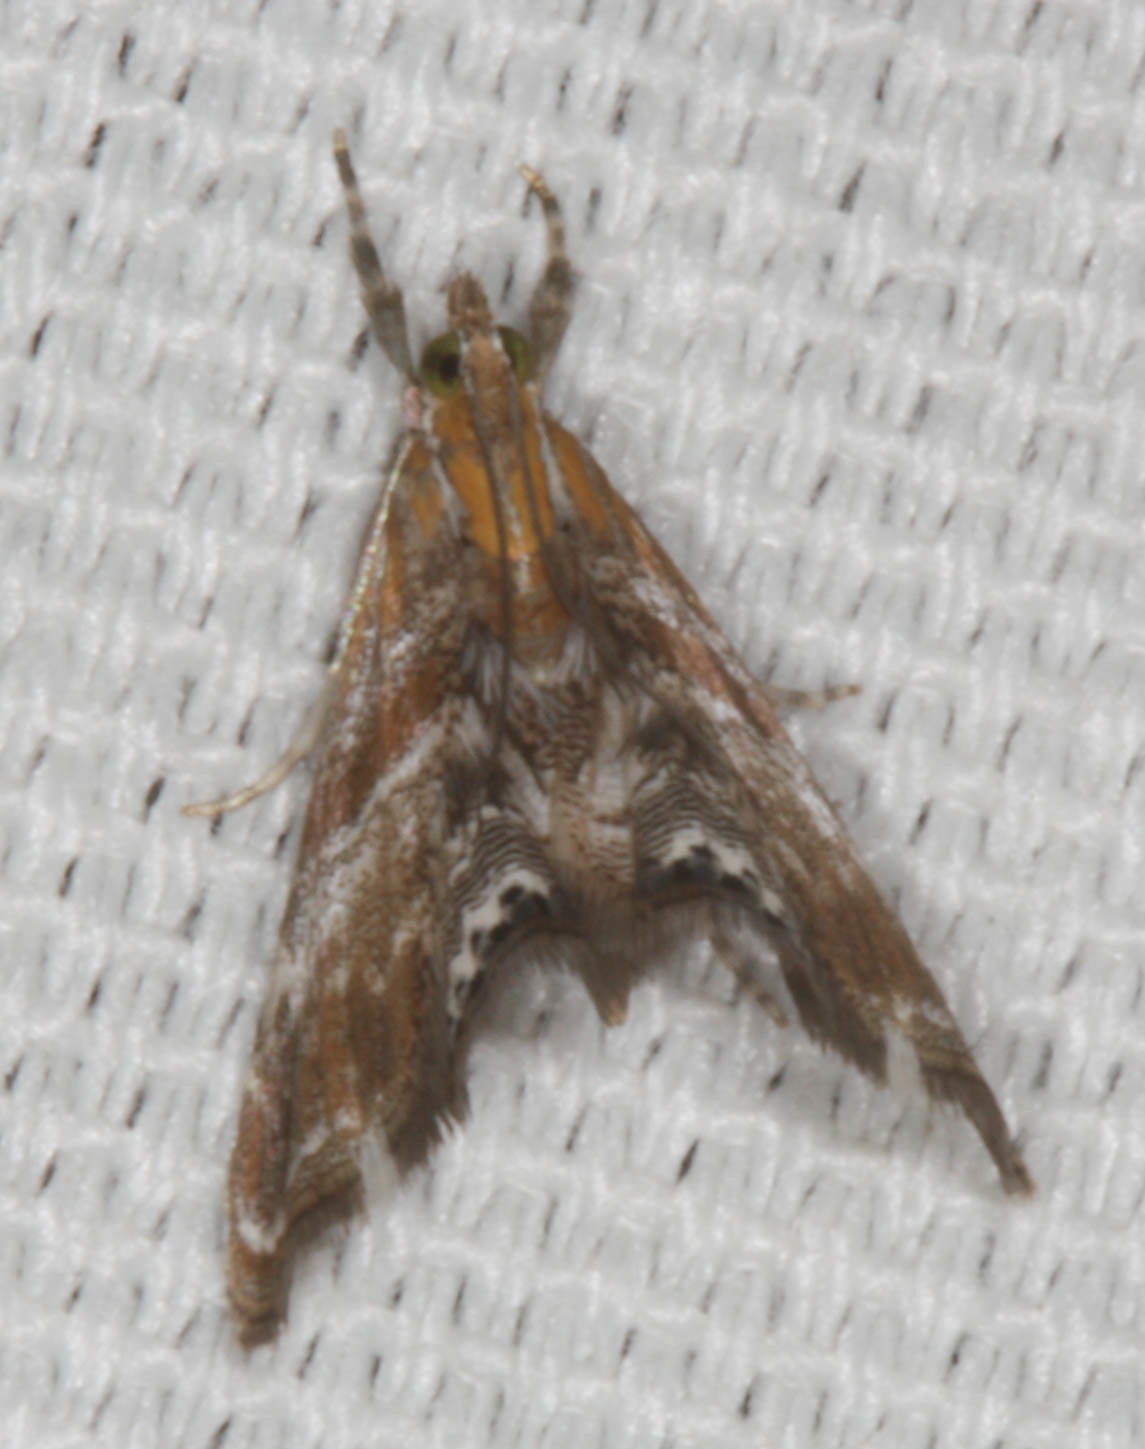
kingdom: Animalia
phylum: Arthropoda
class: Insecta
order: Lepidoptera
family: Crambidae
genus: Dicymolomia
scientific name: Dicymolomia metalliferalis
